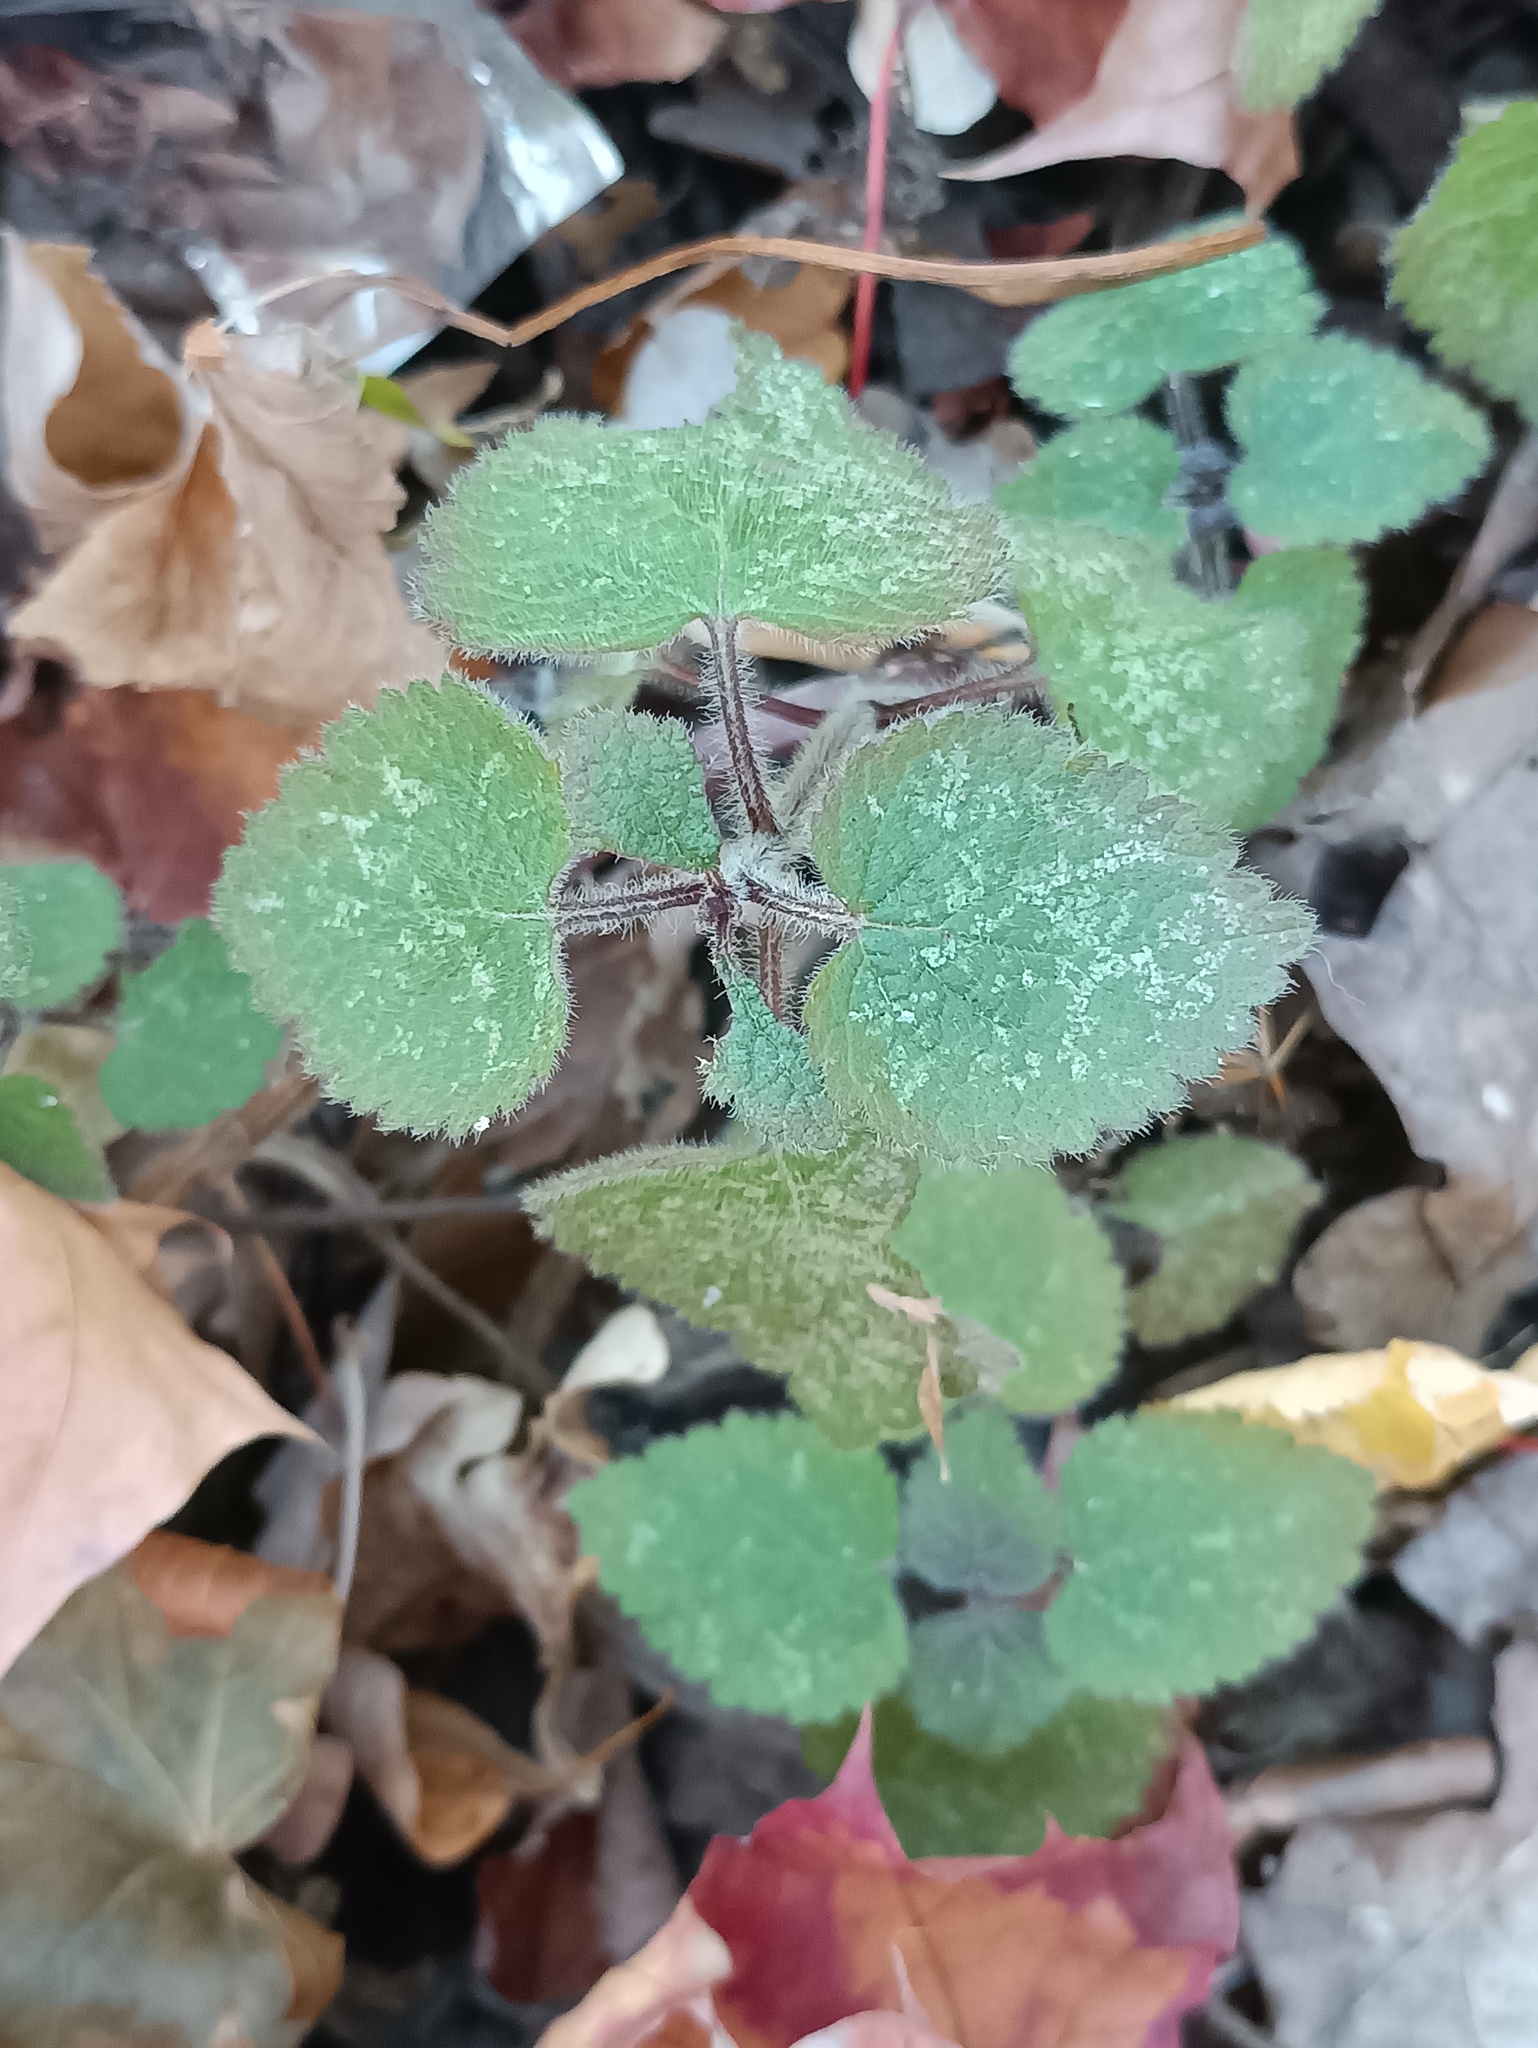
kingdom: Plantae
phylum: Tracheophyta
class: Magnoliopsida
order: Lamiales
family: Lamiaceae
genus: Stachys
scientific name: Stachys sylvatica
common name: Hedge woundwort
